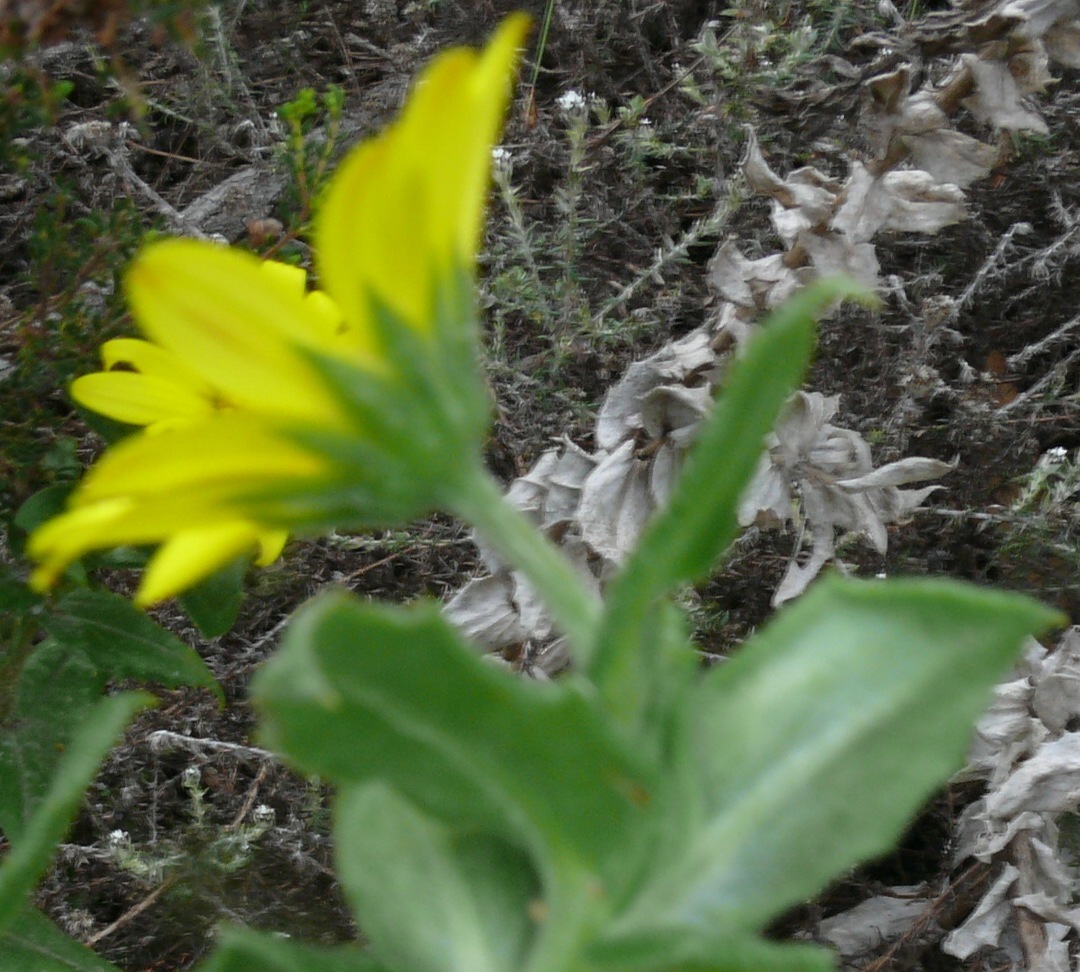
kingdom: Plantae
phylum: Tracheophyta
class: Magnoliopsida
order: Asterales
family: Asteraceae
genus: Osteospermum
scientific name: Osteospermum ilicifolium
